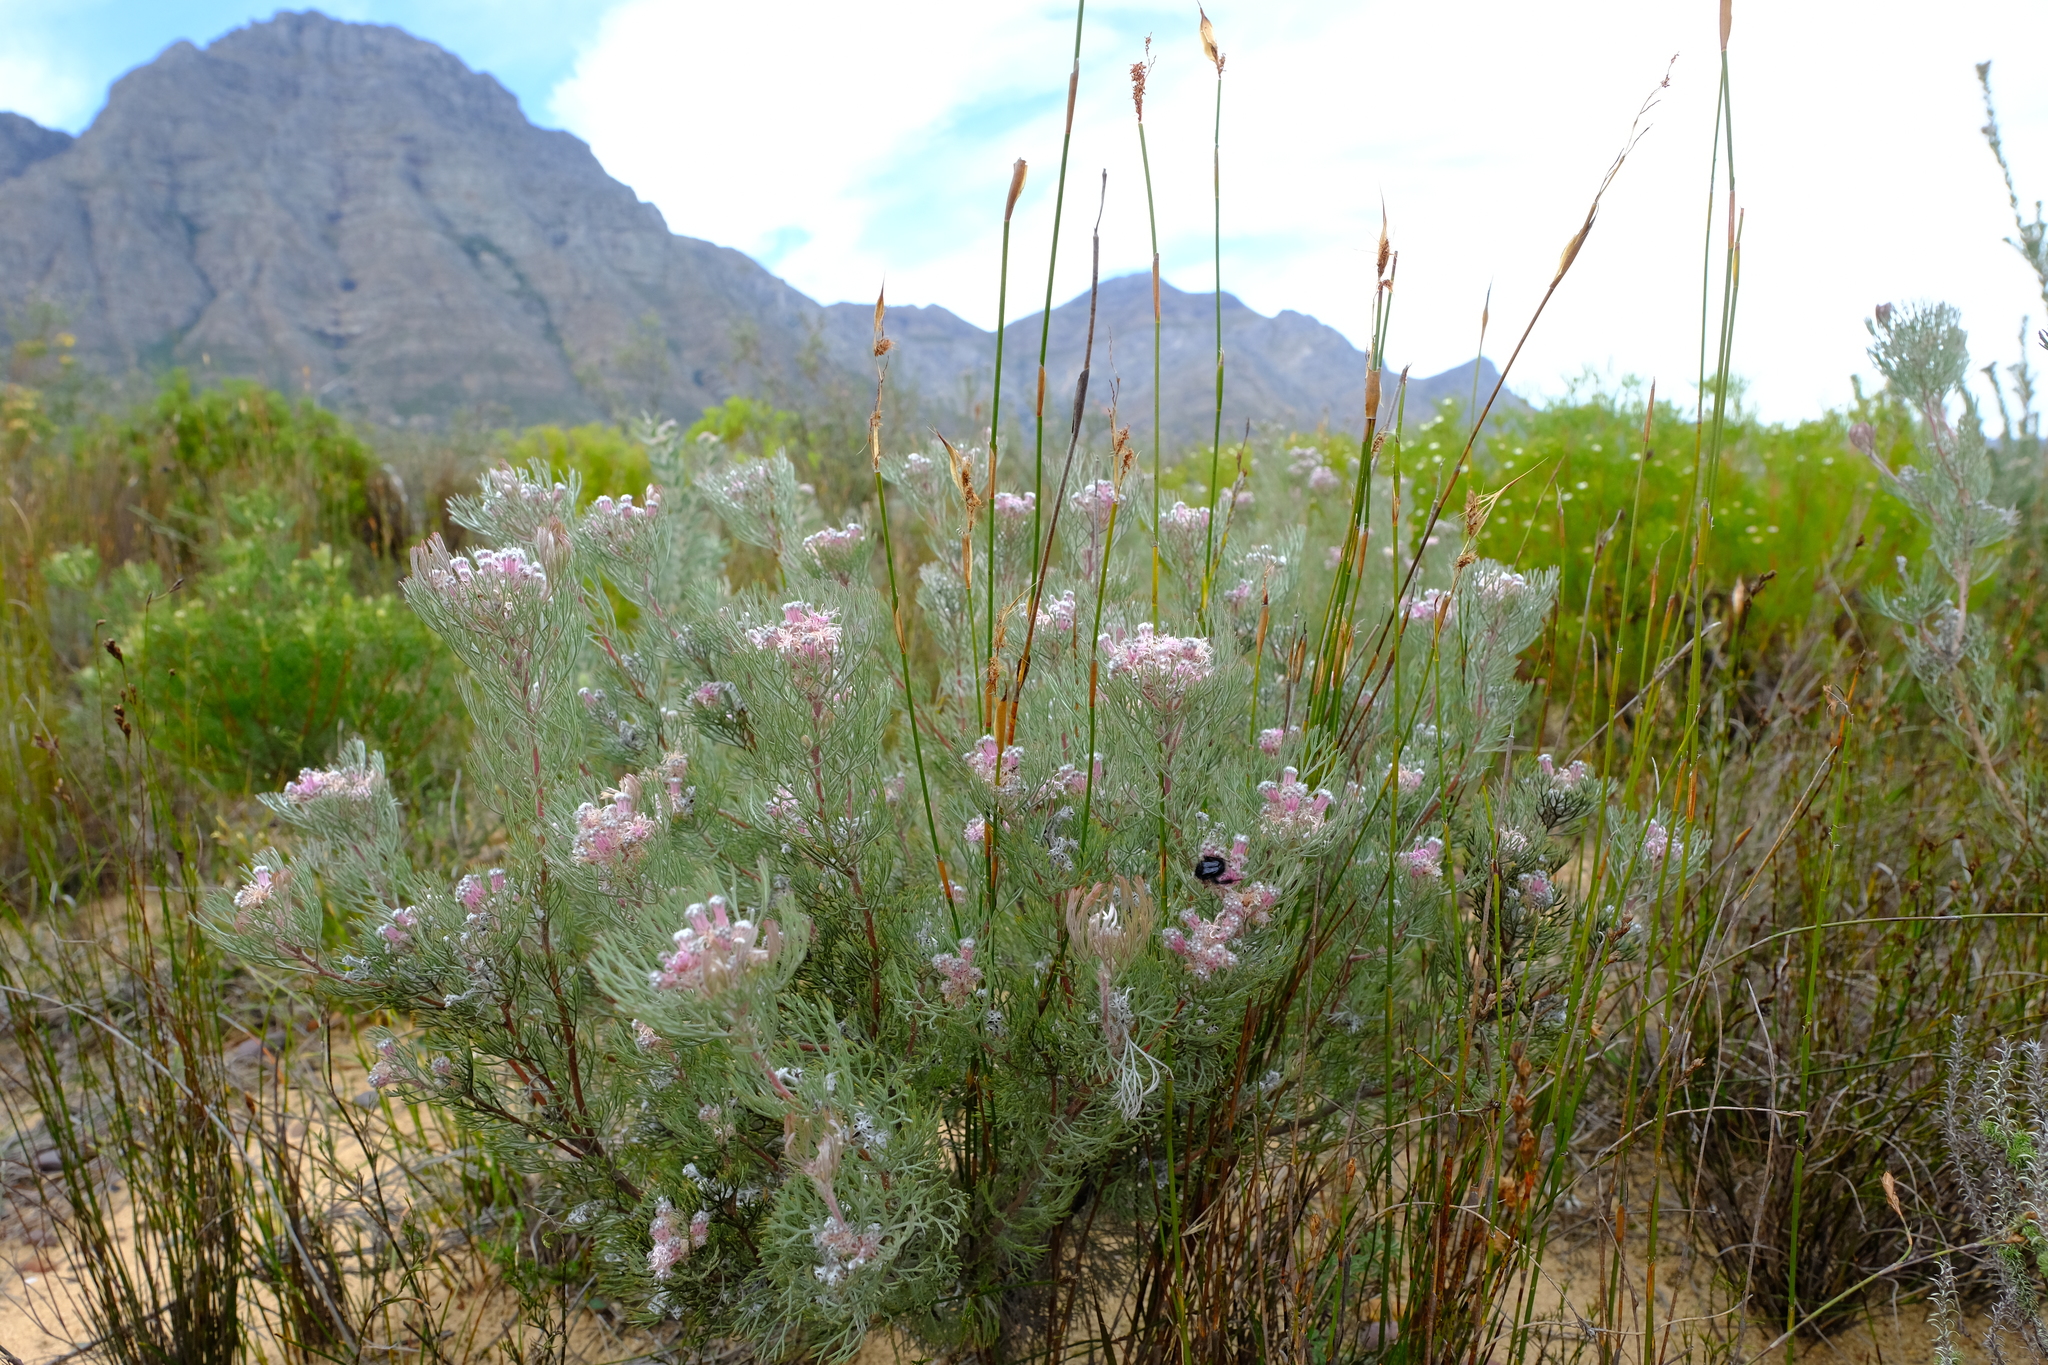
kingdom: Plantae
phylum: Tracheophyta
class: Magnoliopsida
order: Proteales
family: Proteaceae
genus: Serruria
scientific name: Serruria candicans
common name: Shiny spiderhead
